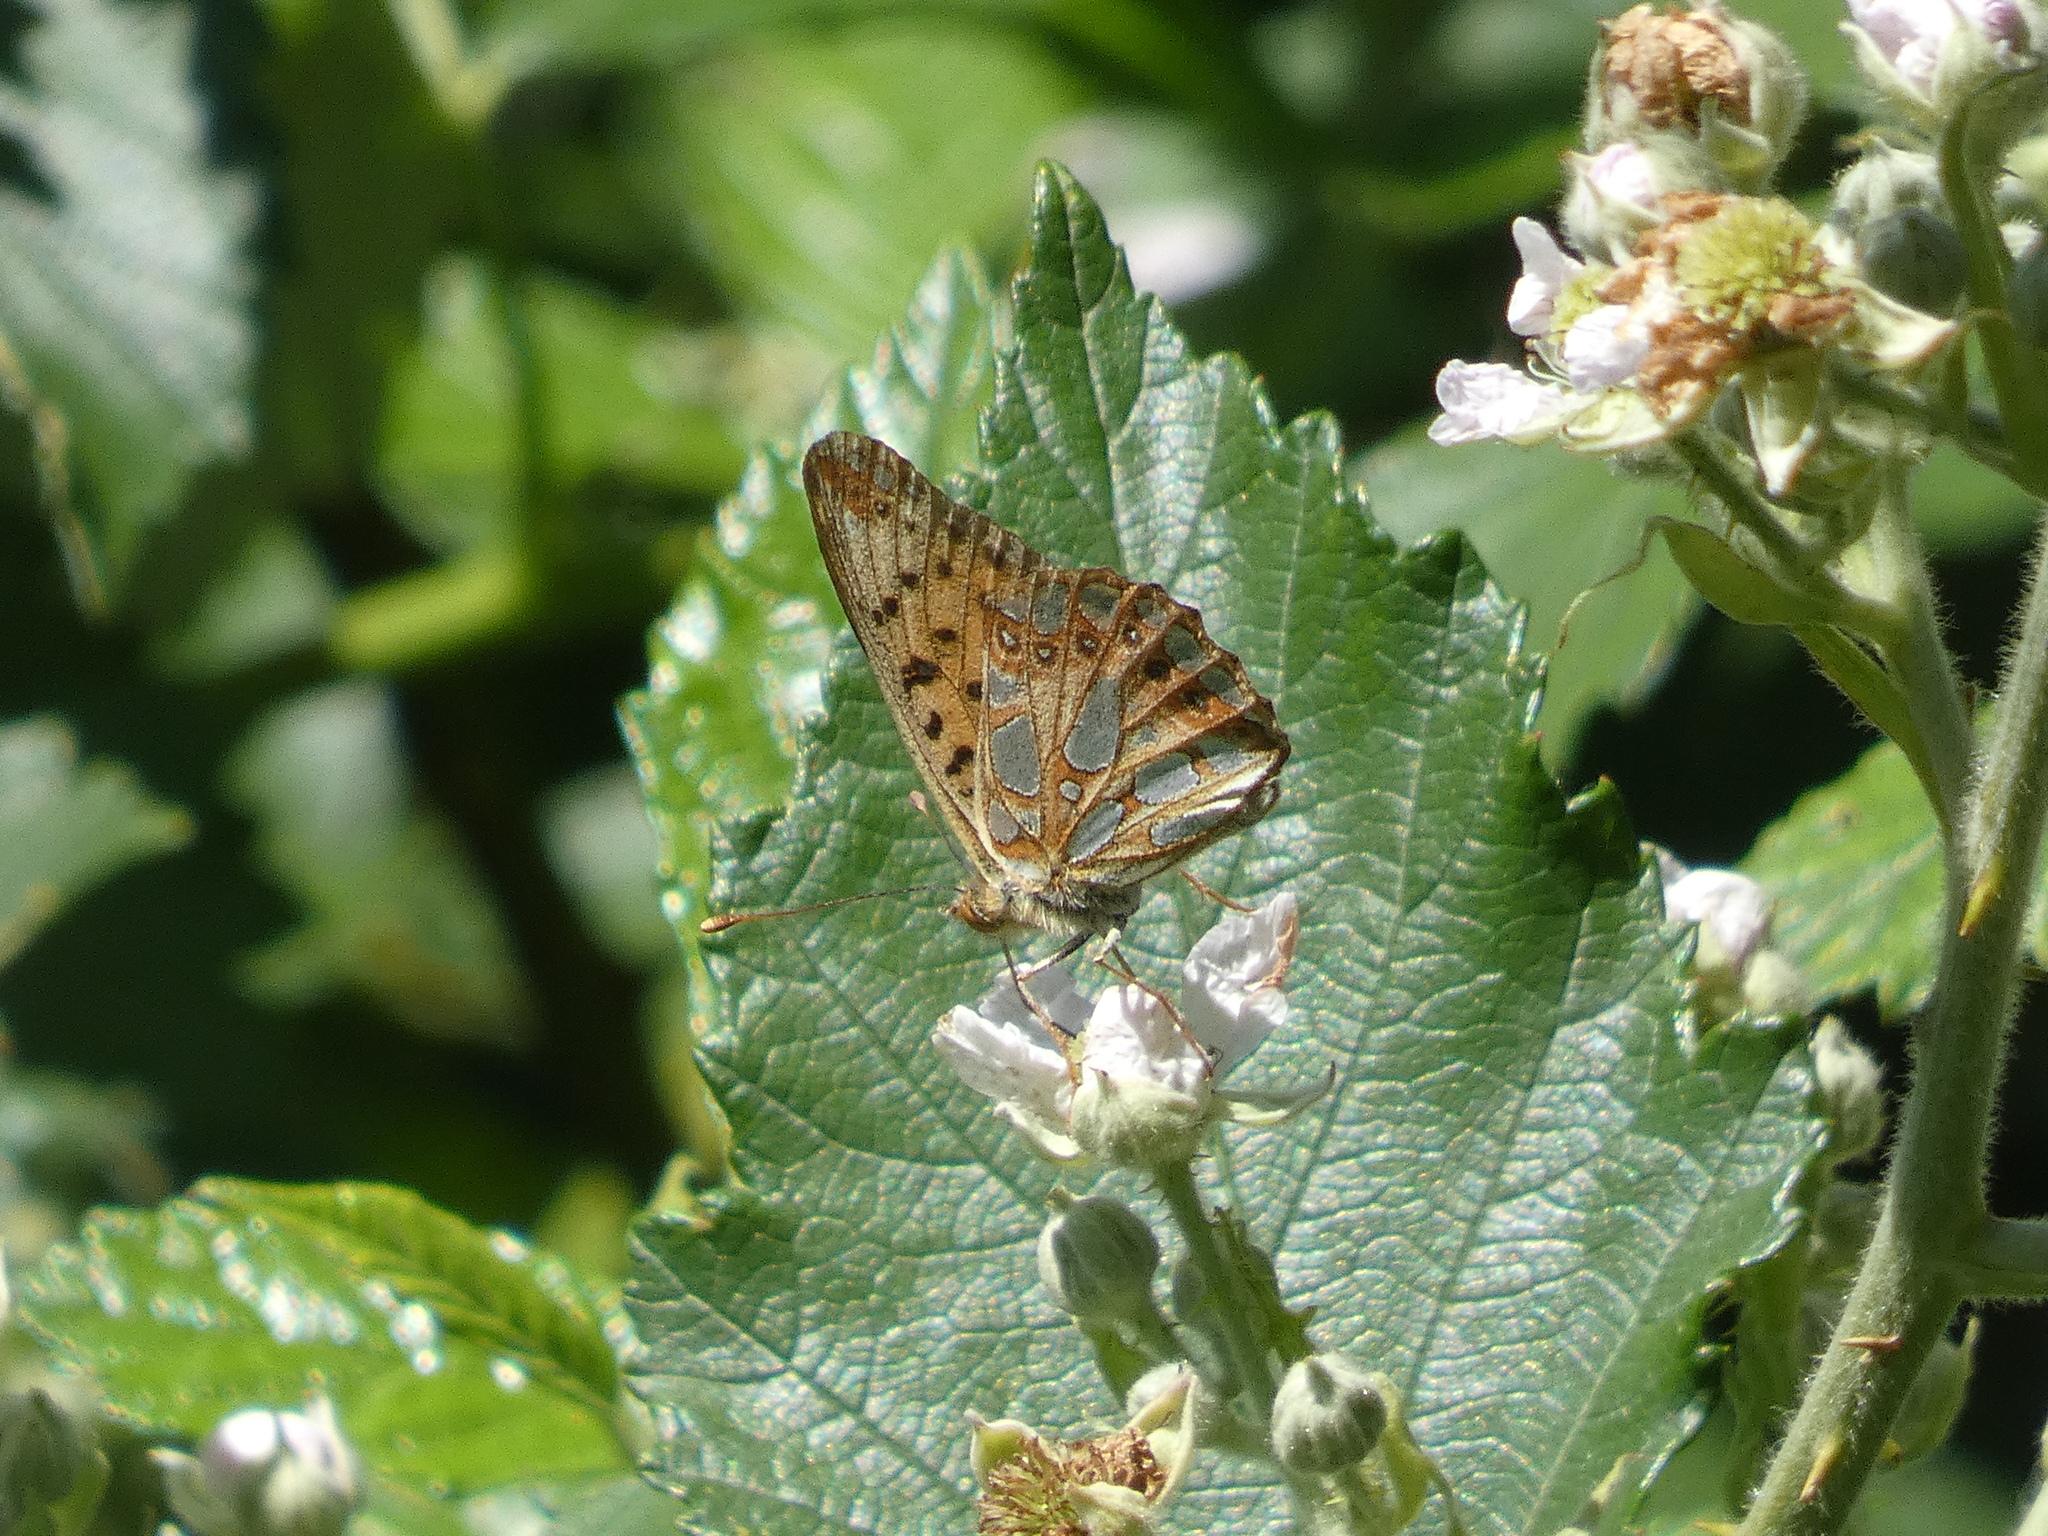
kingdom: Animalia
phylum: Arthropoda
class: Insecta
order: Lepidoptera
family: Nymphalidae
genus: Issoria
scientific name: Issoria lathonia
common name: Queen of spain fritillary
